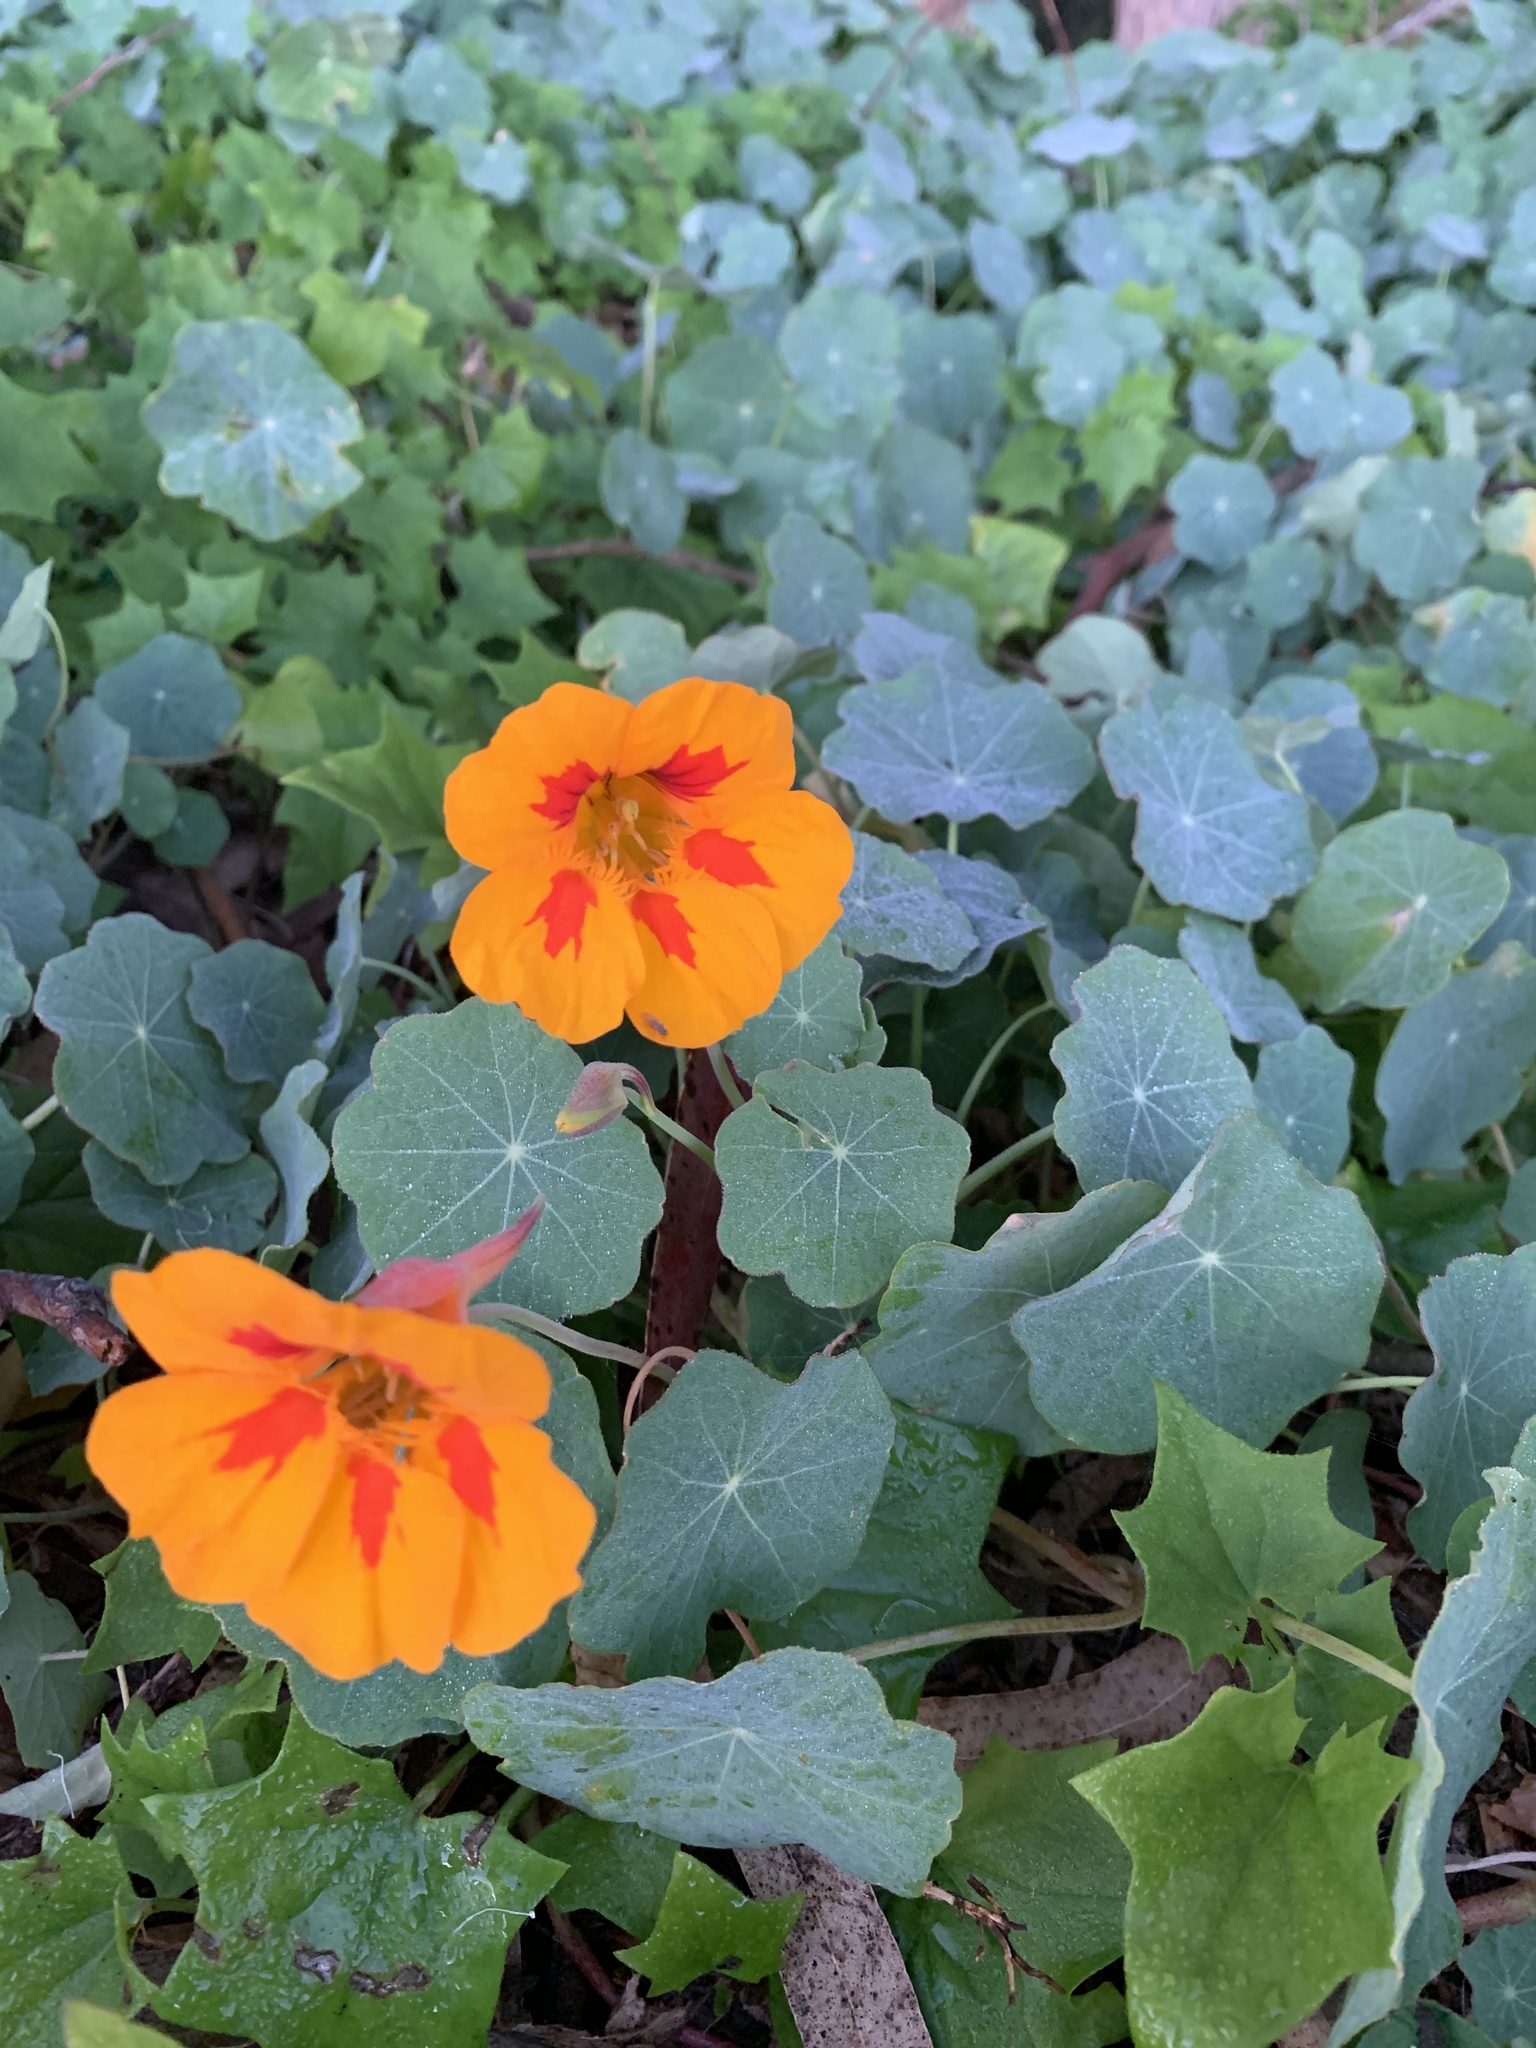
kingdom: Plantae
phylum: Tracheophyta
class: Magnoliopsida
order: Brassicales
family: Tropaeolaceae
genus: Tropaeolum
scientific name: Tropaeolum majus
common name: Nasturtium
